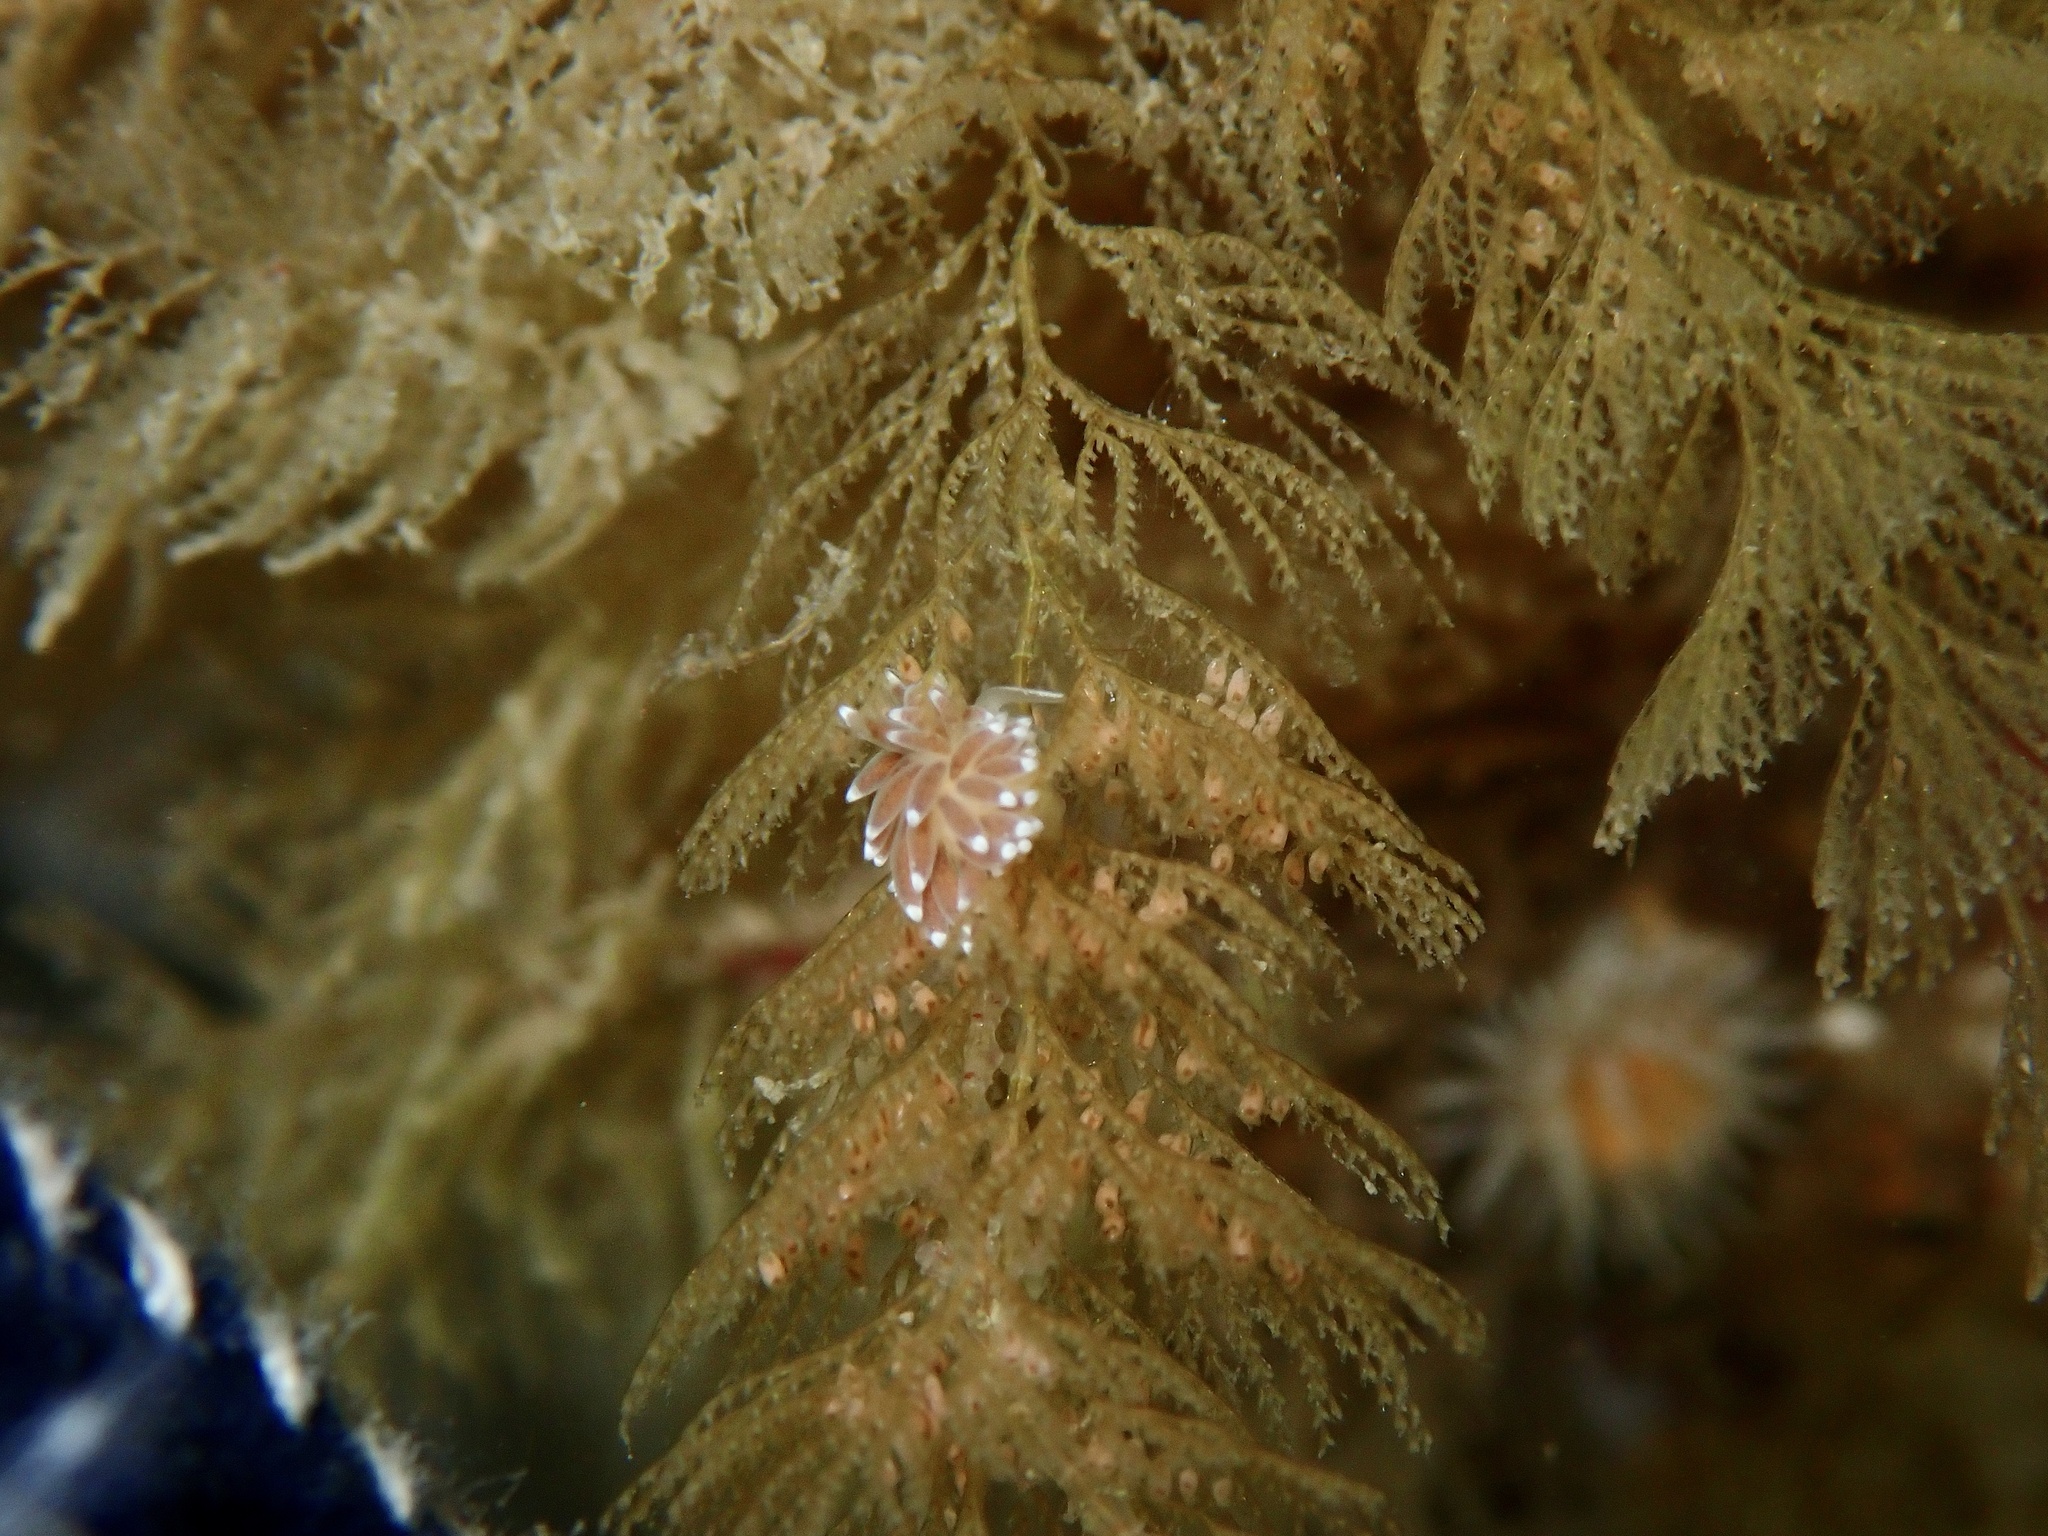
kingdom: Animalia
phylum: Mollusca
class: Gastropoda
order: Nudibranchia
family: Cuthonellidae
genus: Cuthonella
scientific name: Cuthonella concinna
